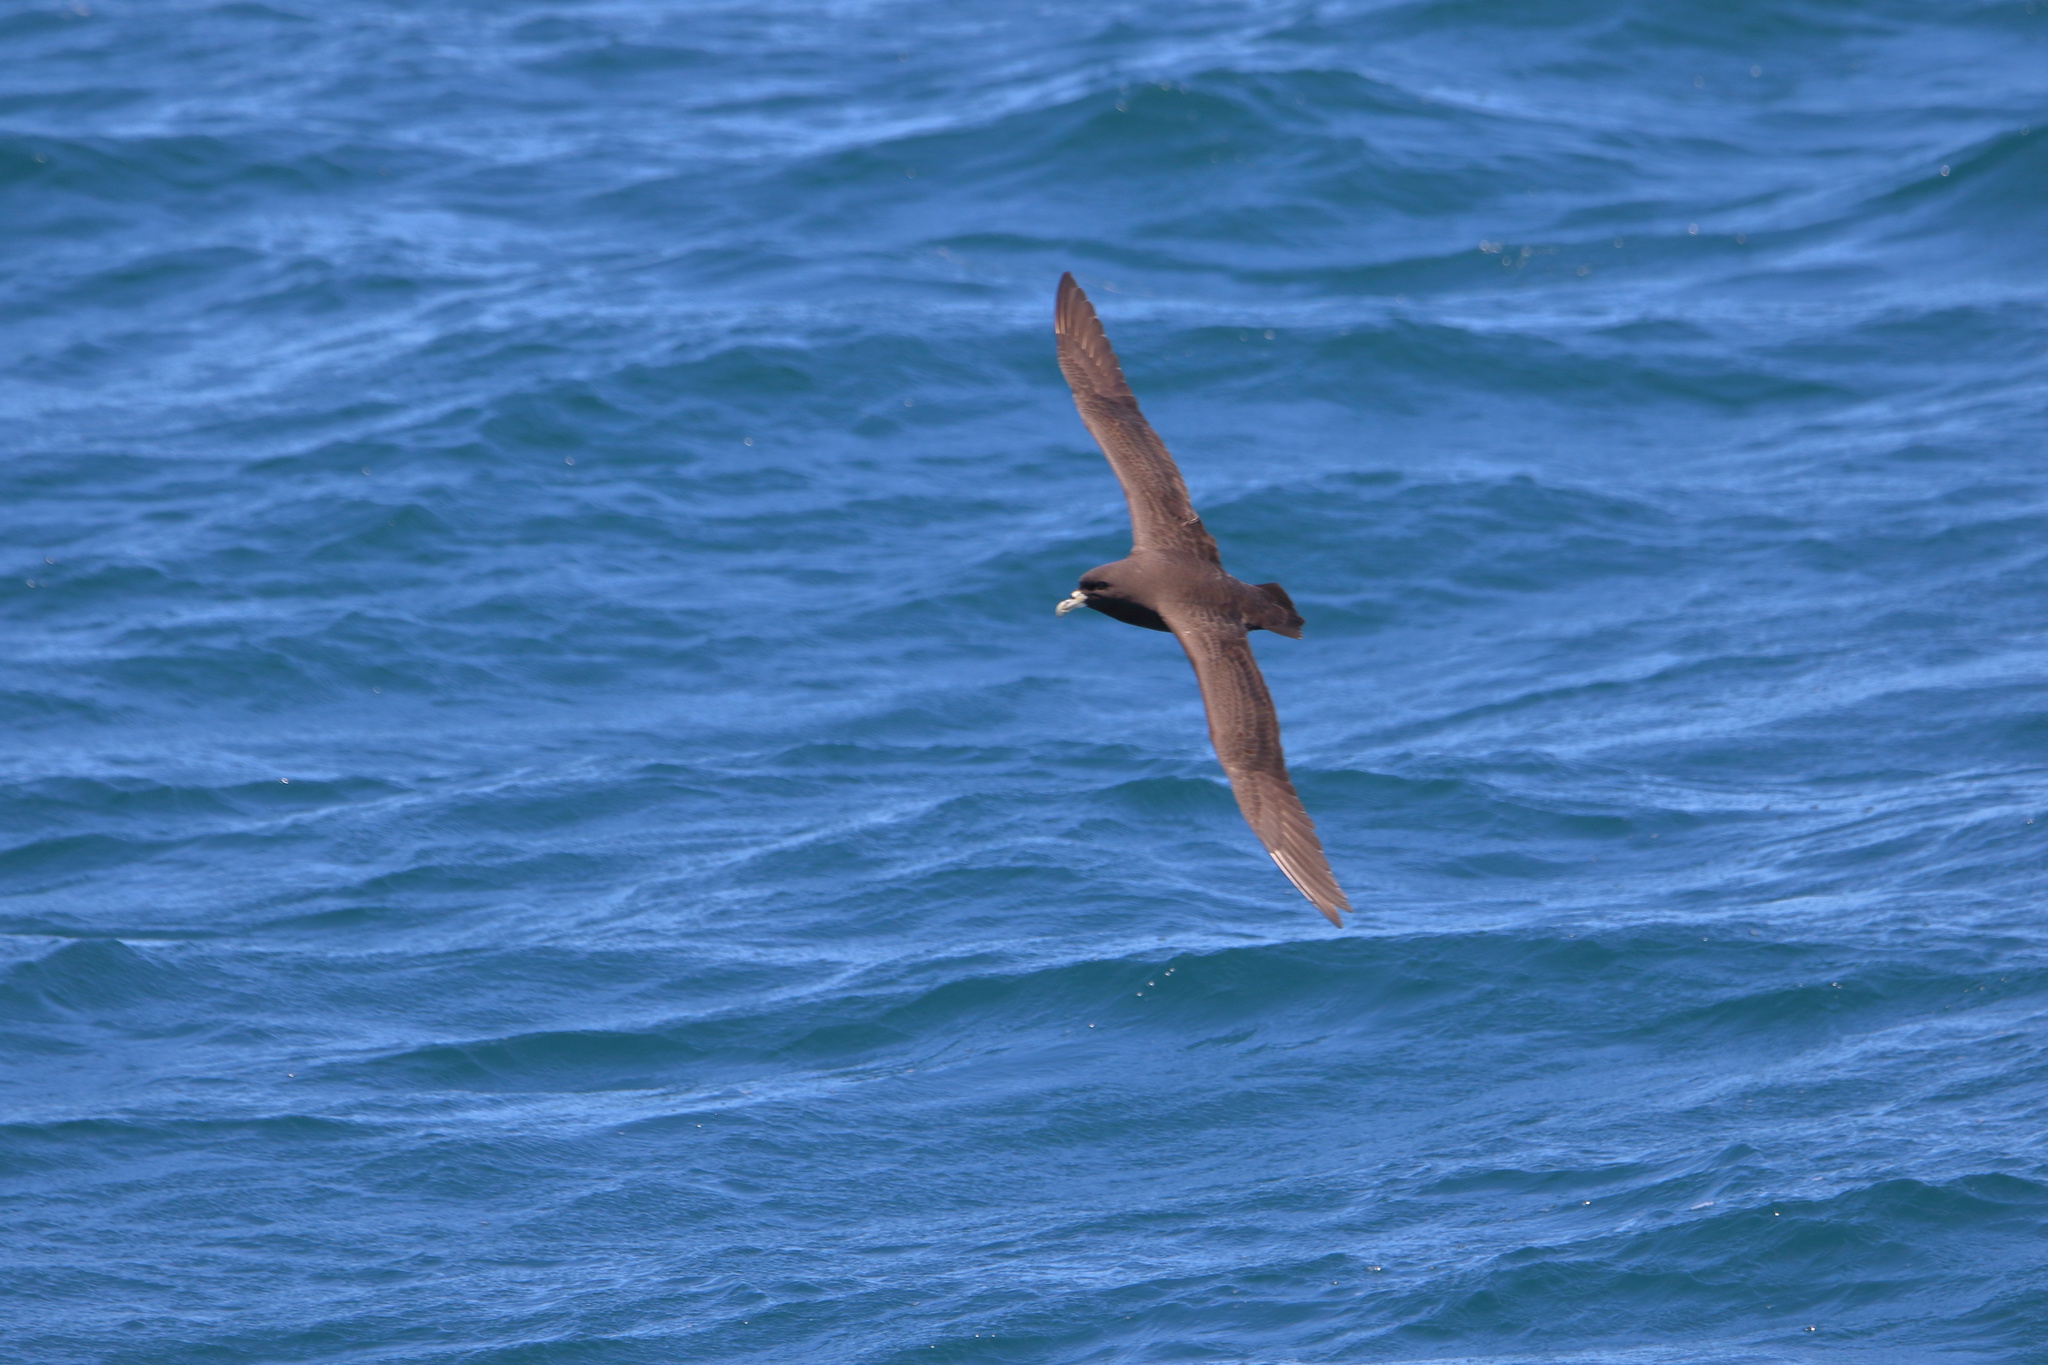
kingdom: Animalia
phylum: Chordata
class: Aves
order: Procellariiformes
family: Procellariidae
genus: Procellaria
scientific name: Procellaria aequinoctialis
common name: White-chinned petrel
